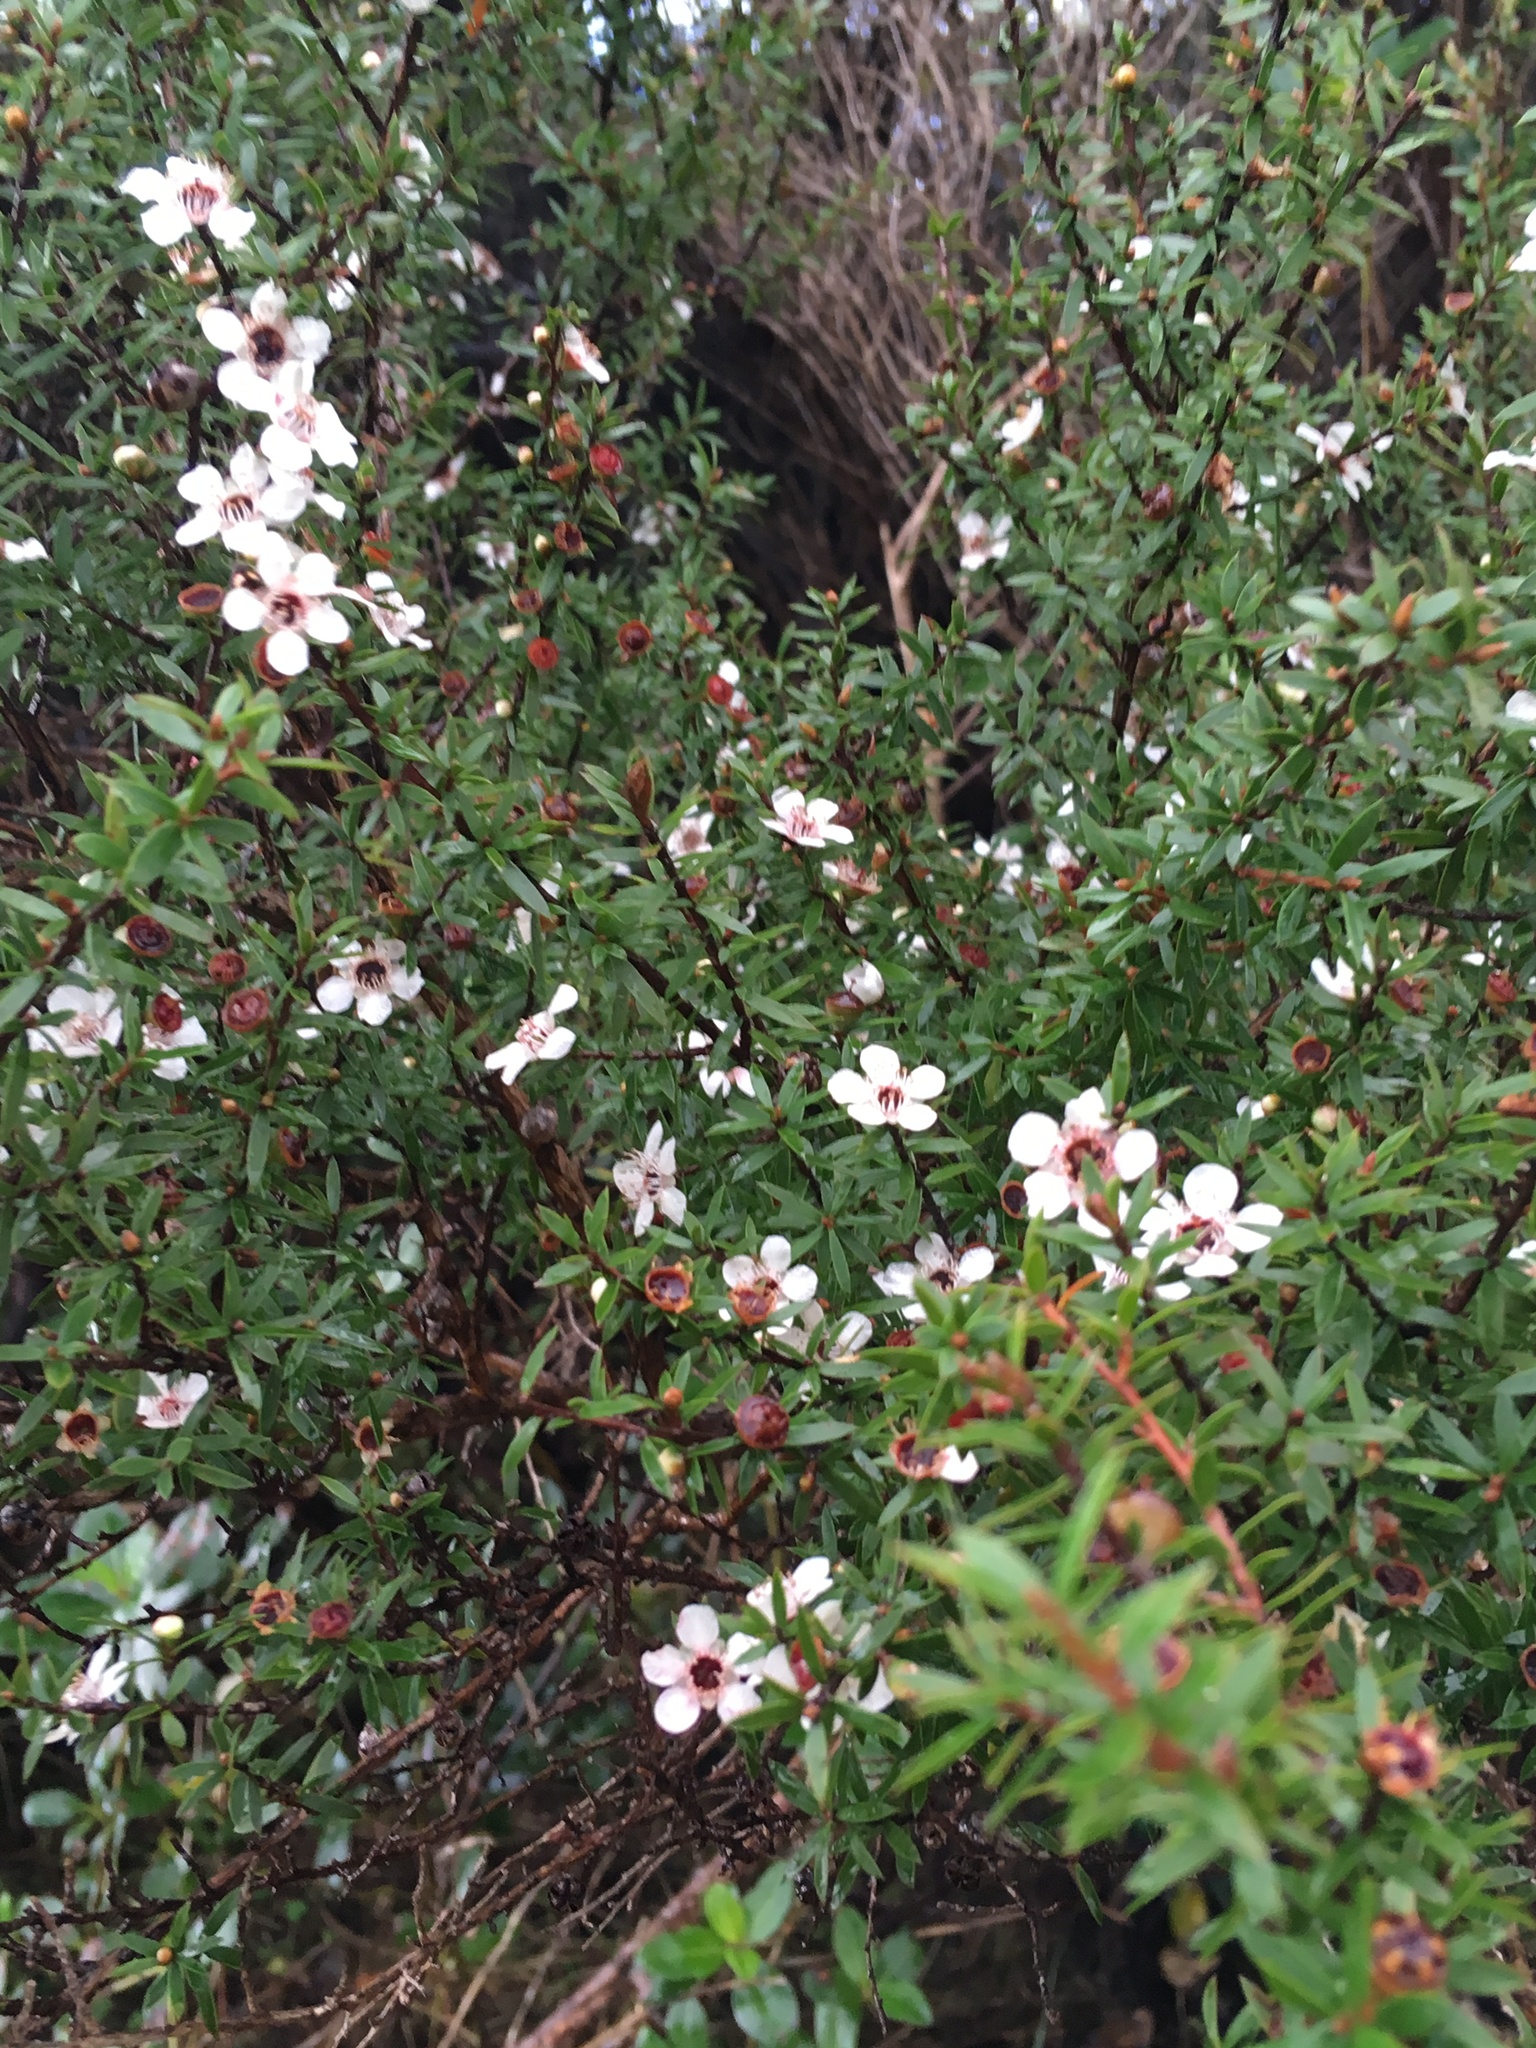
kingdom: Plantae
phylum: Tracheophyta
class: Magnoliopsida
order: Myrtales
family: Myrtaceae
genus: Leptospermum
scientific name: Leptospermum scoparium
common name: Broom tea-tree
